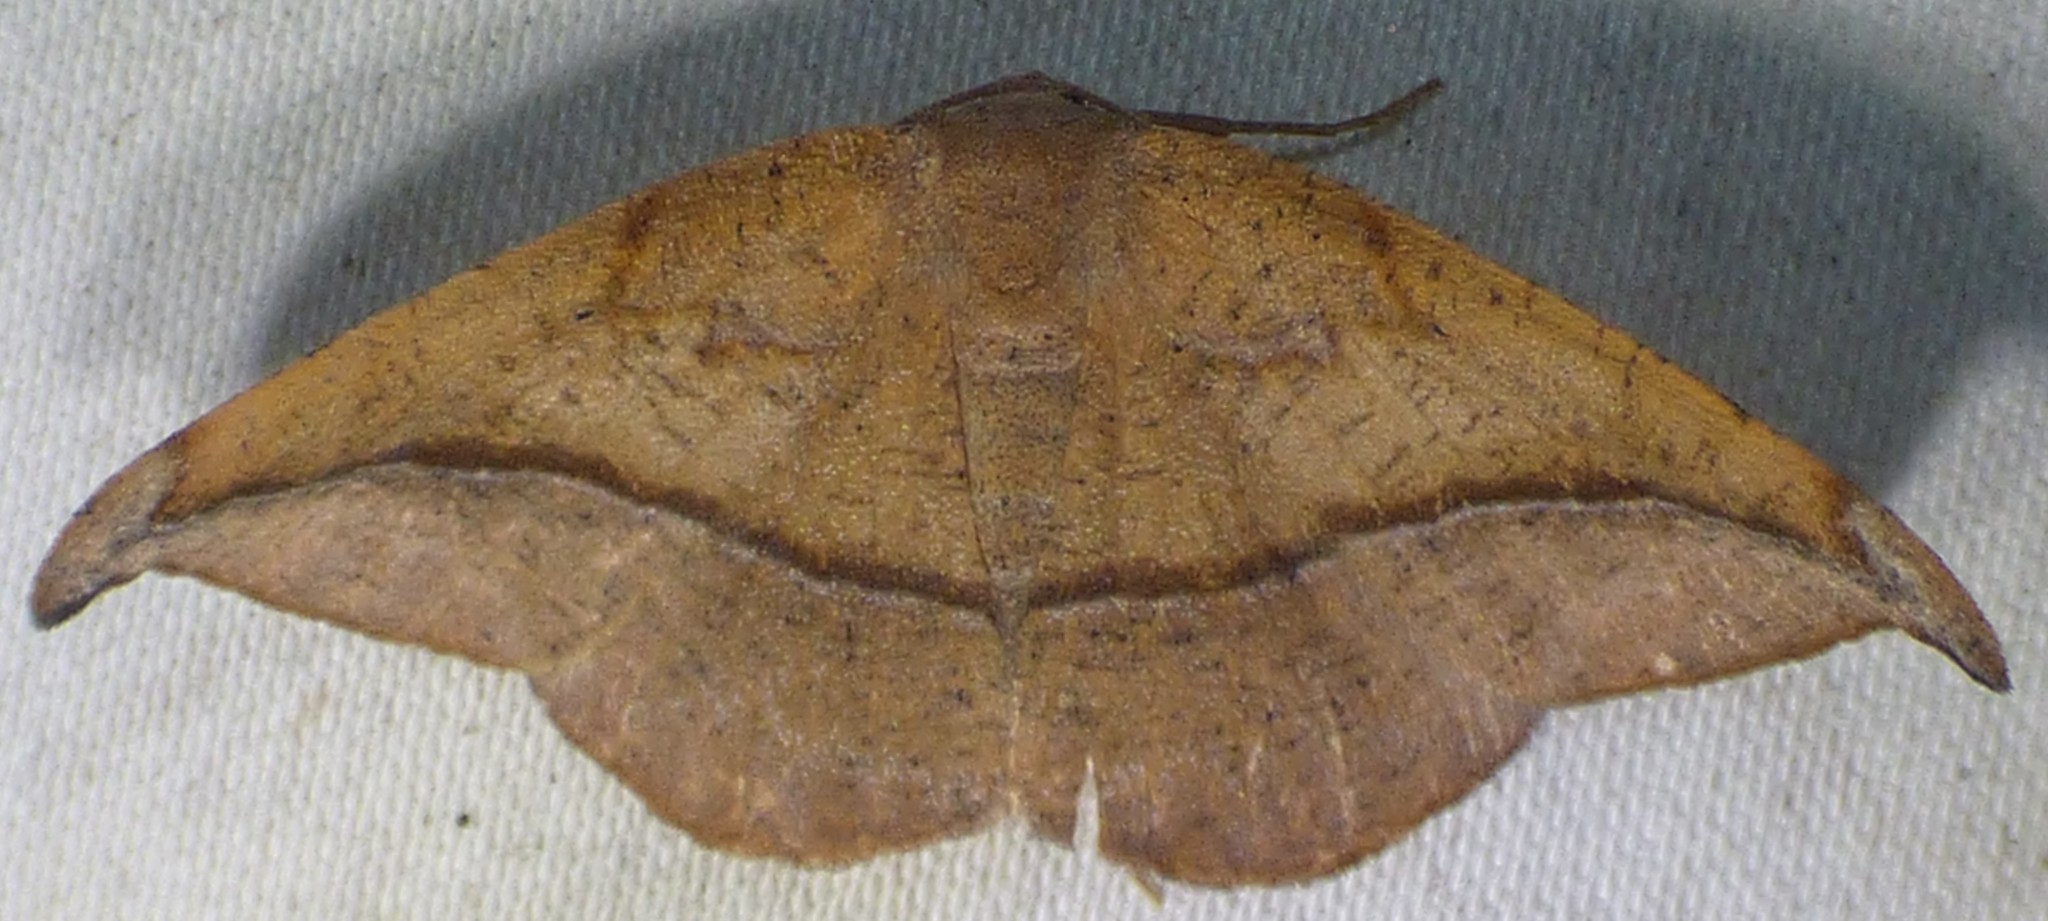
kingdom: Animalia
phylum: Arthropoda
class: Insecta
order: Lepidoptera
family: Geometridae
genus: Patalene
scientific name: Patalene olyzonaria
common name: Juniper geometer moth
